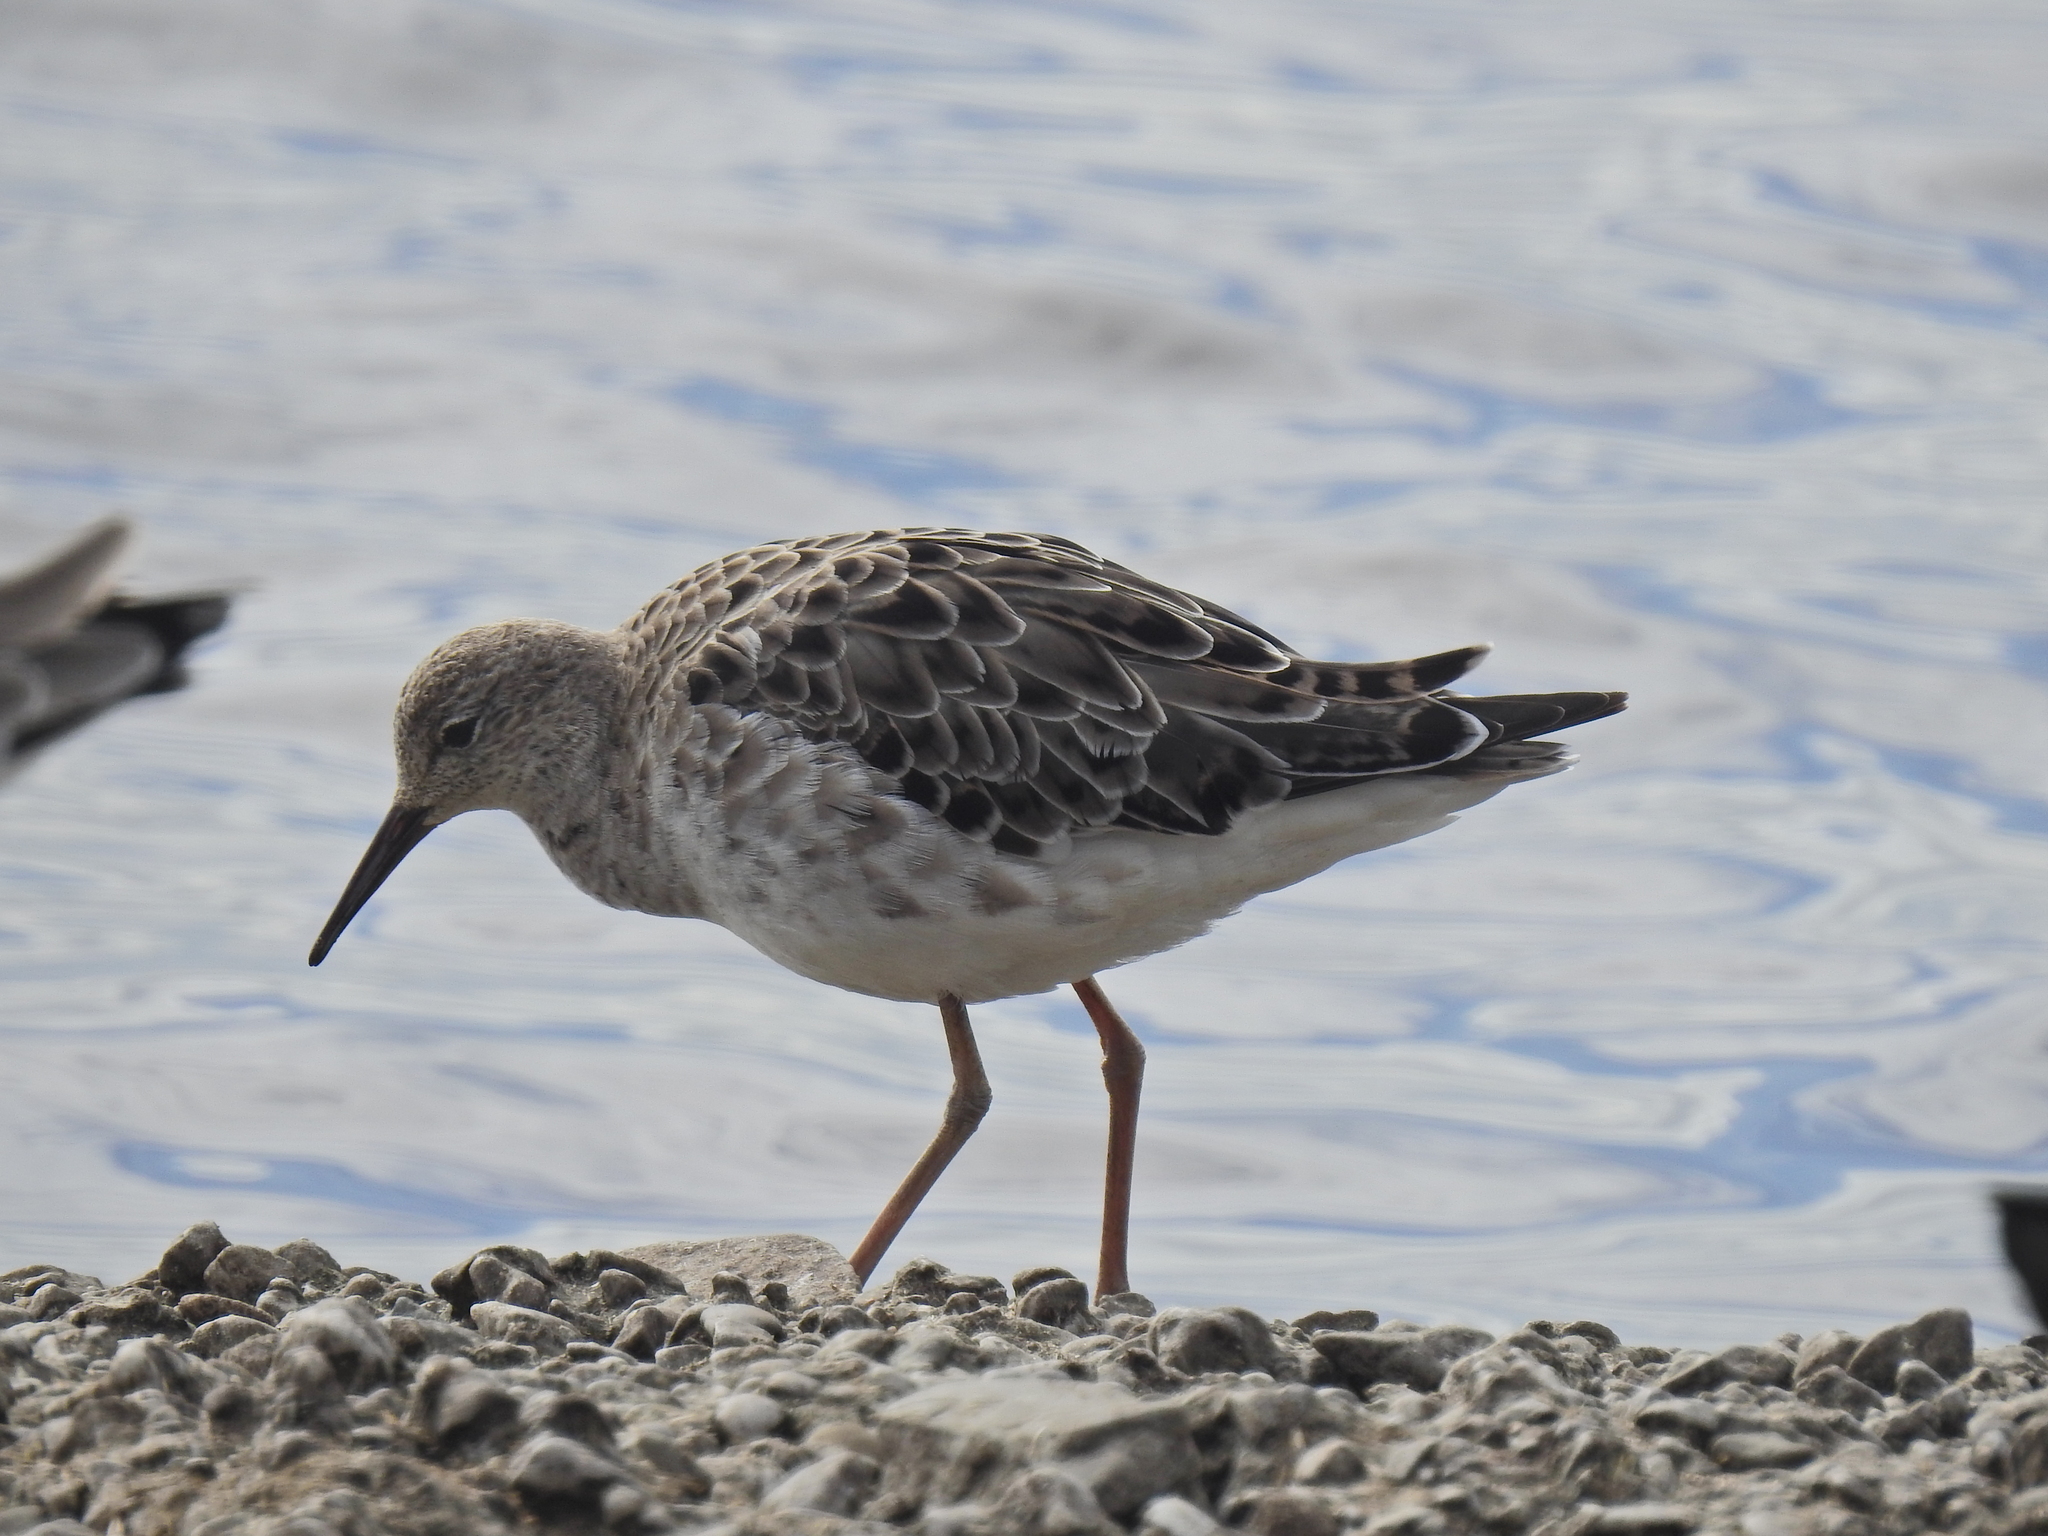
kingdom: Animalia
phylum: Chordata
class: Aves
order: Charadriiformes
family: Scolopacidae
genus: Calidris
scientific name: Calidris pugnax
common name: Ruff
